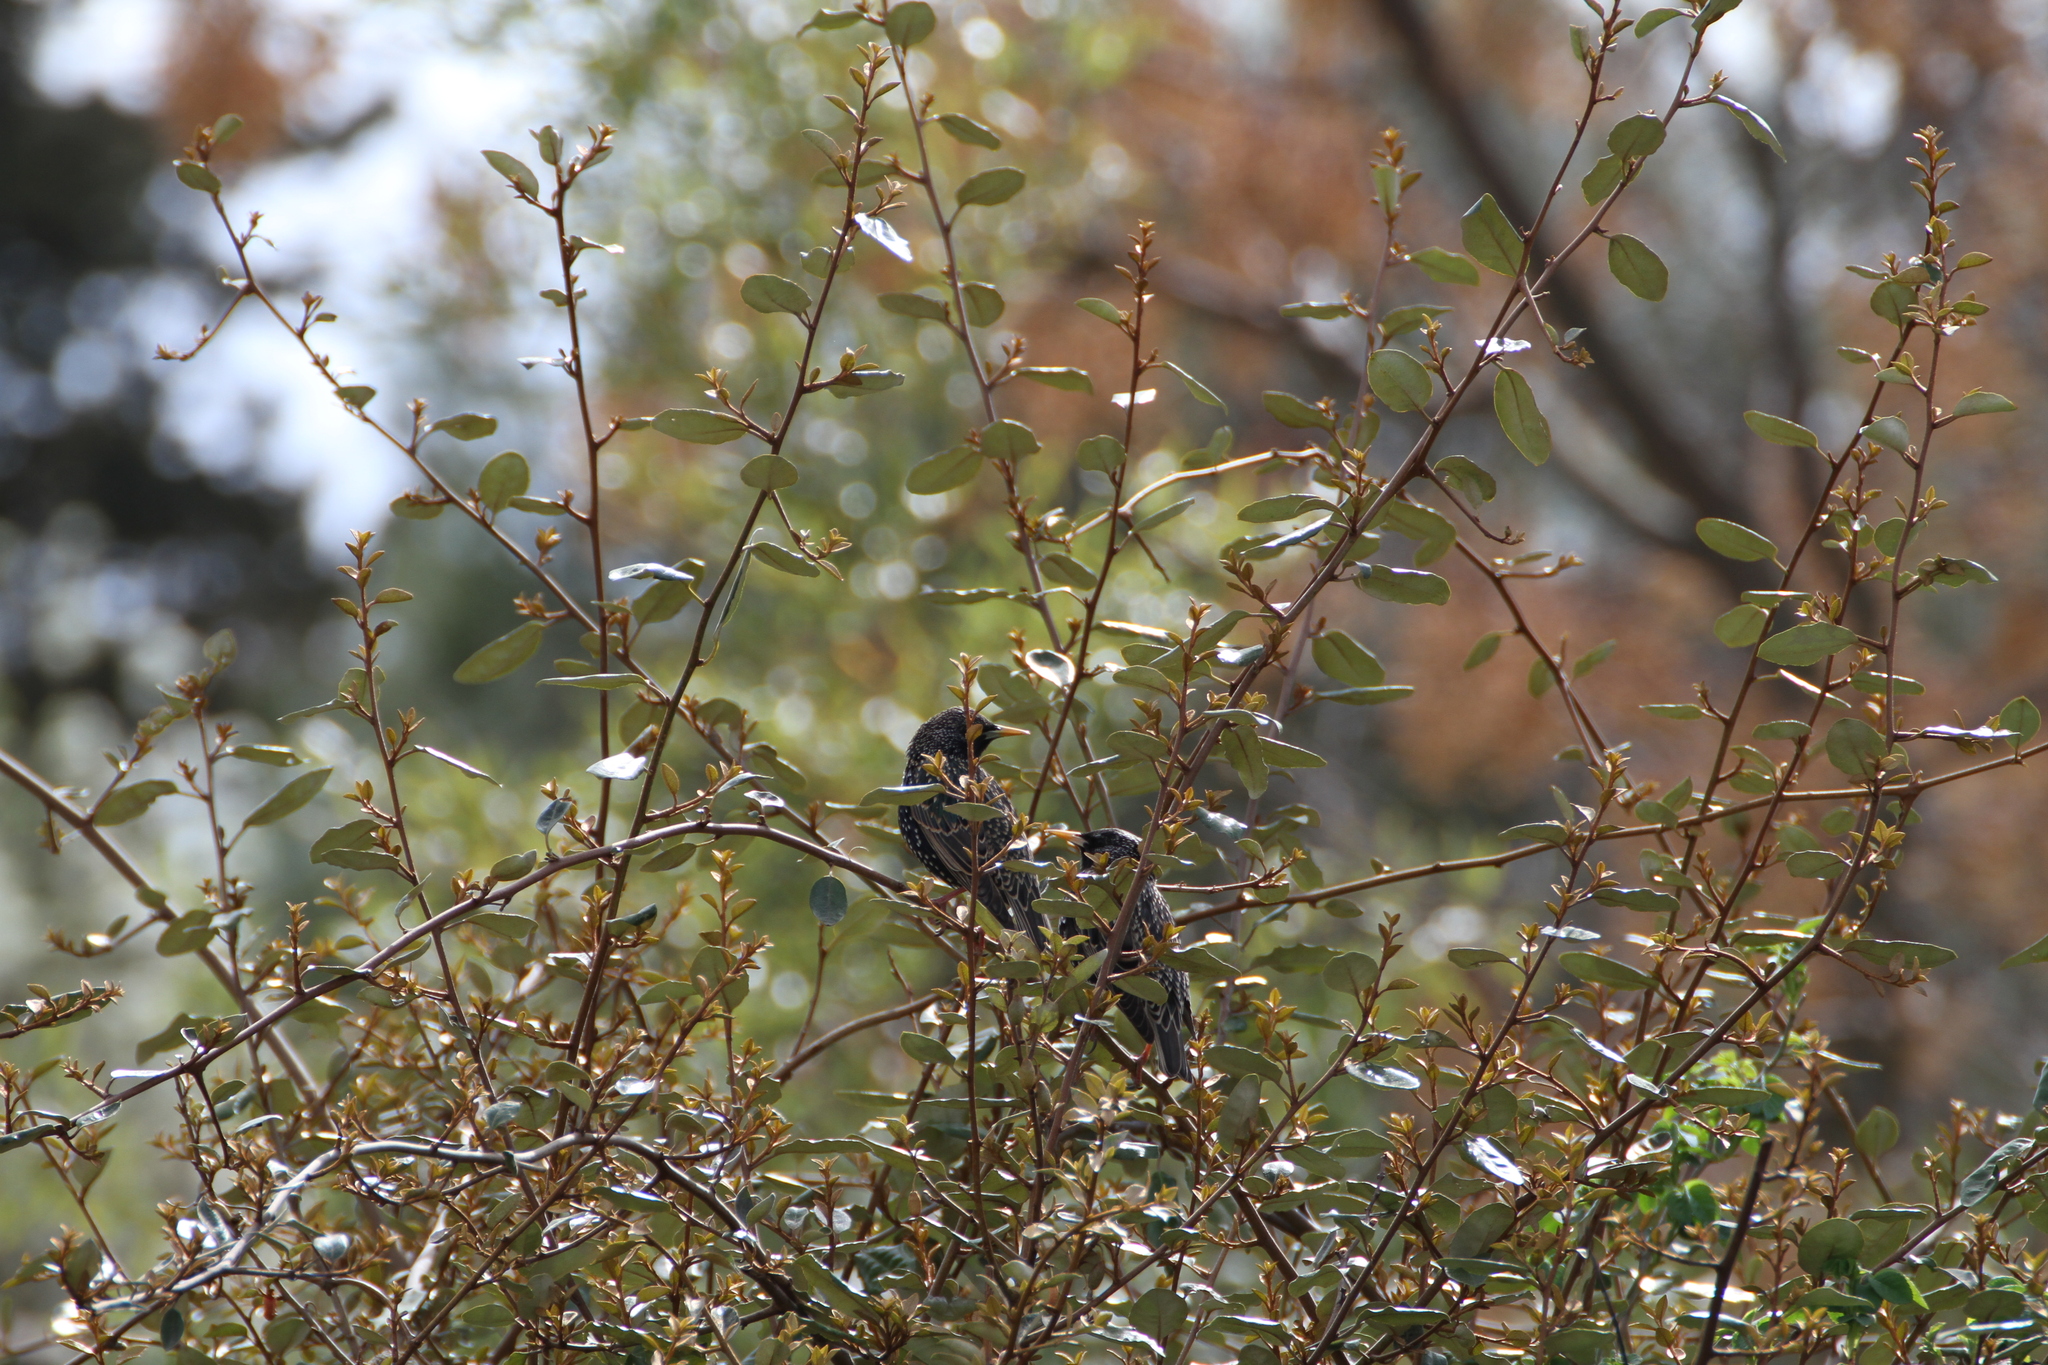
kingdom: Animalia
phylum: Chordata
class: Aves
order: Passeriformes
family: Sturnidae
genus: Sturnus
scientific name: Sturnus vulgaris
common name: Common starling
